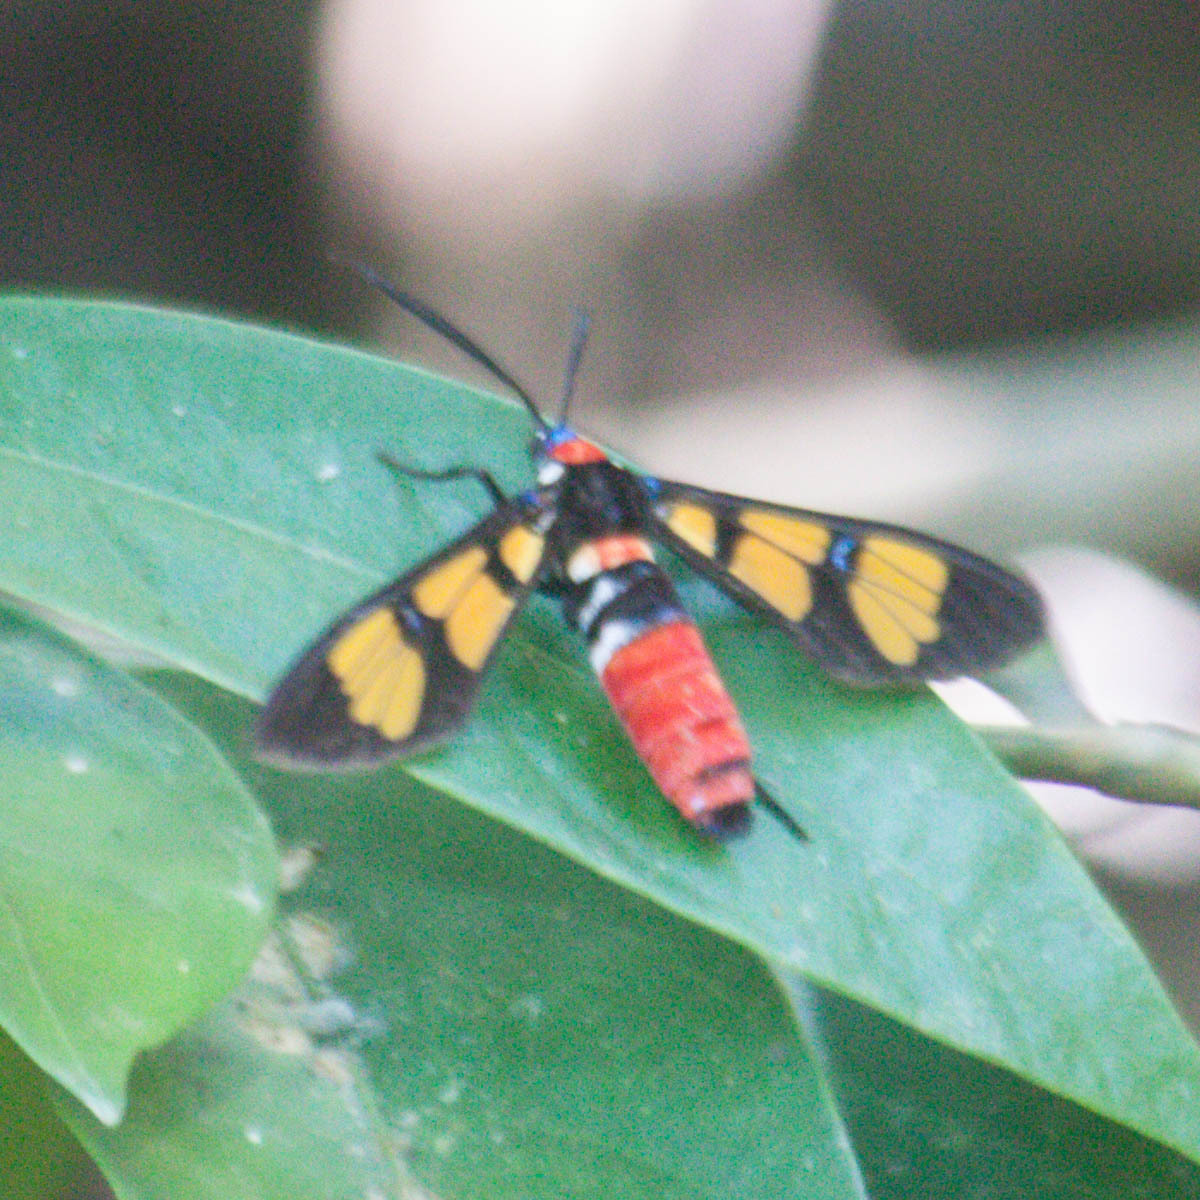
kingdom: Animalia
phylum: Arthropoda
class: Insecta
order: Lepidoptera
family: Erebidae
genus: Euchromia
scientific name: Euchromia polymena
